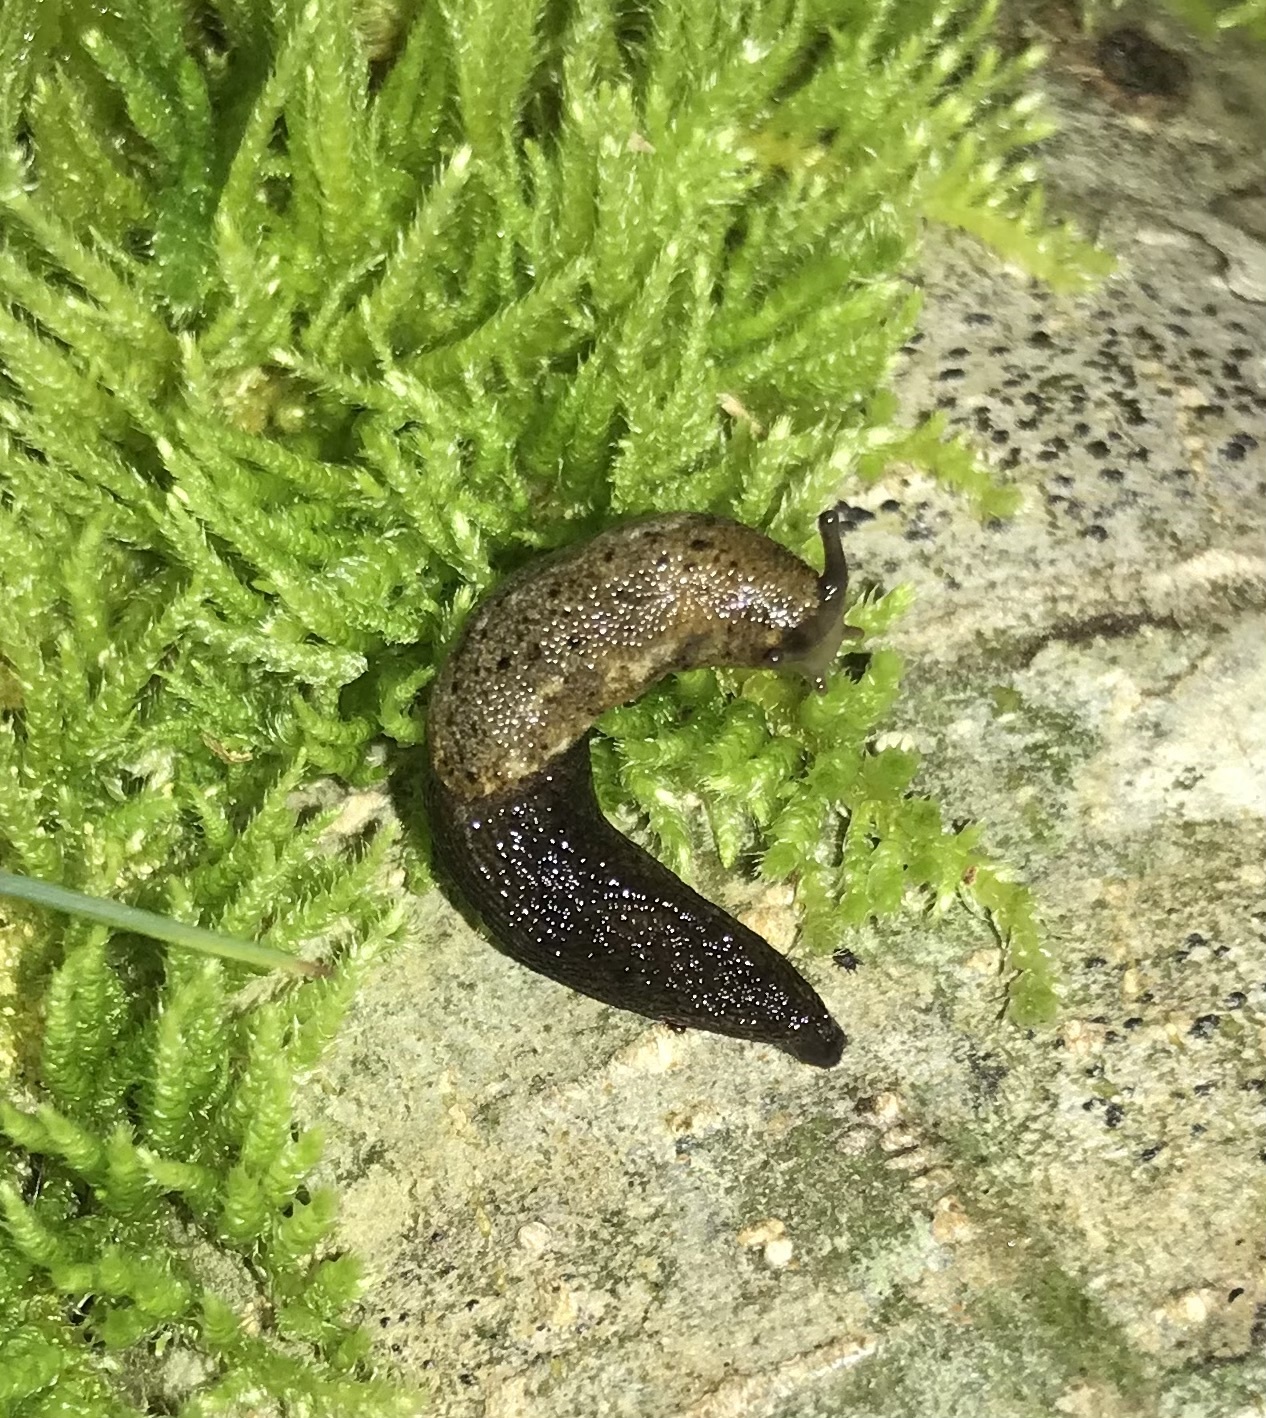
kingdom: Animalia
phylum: Mollusca
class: Gastropoda
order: Stylommatophora
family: Ariolimacidae
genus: Prophysaon
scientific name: Prophysaon andersonii
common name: Reticulate taildropper
